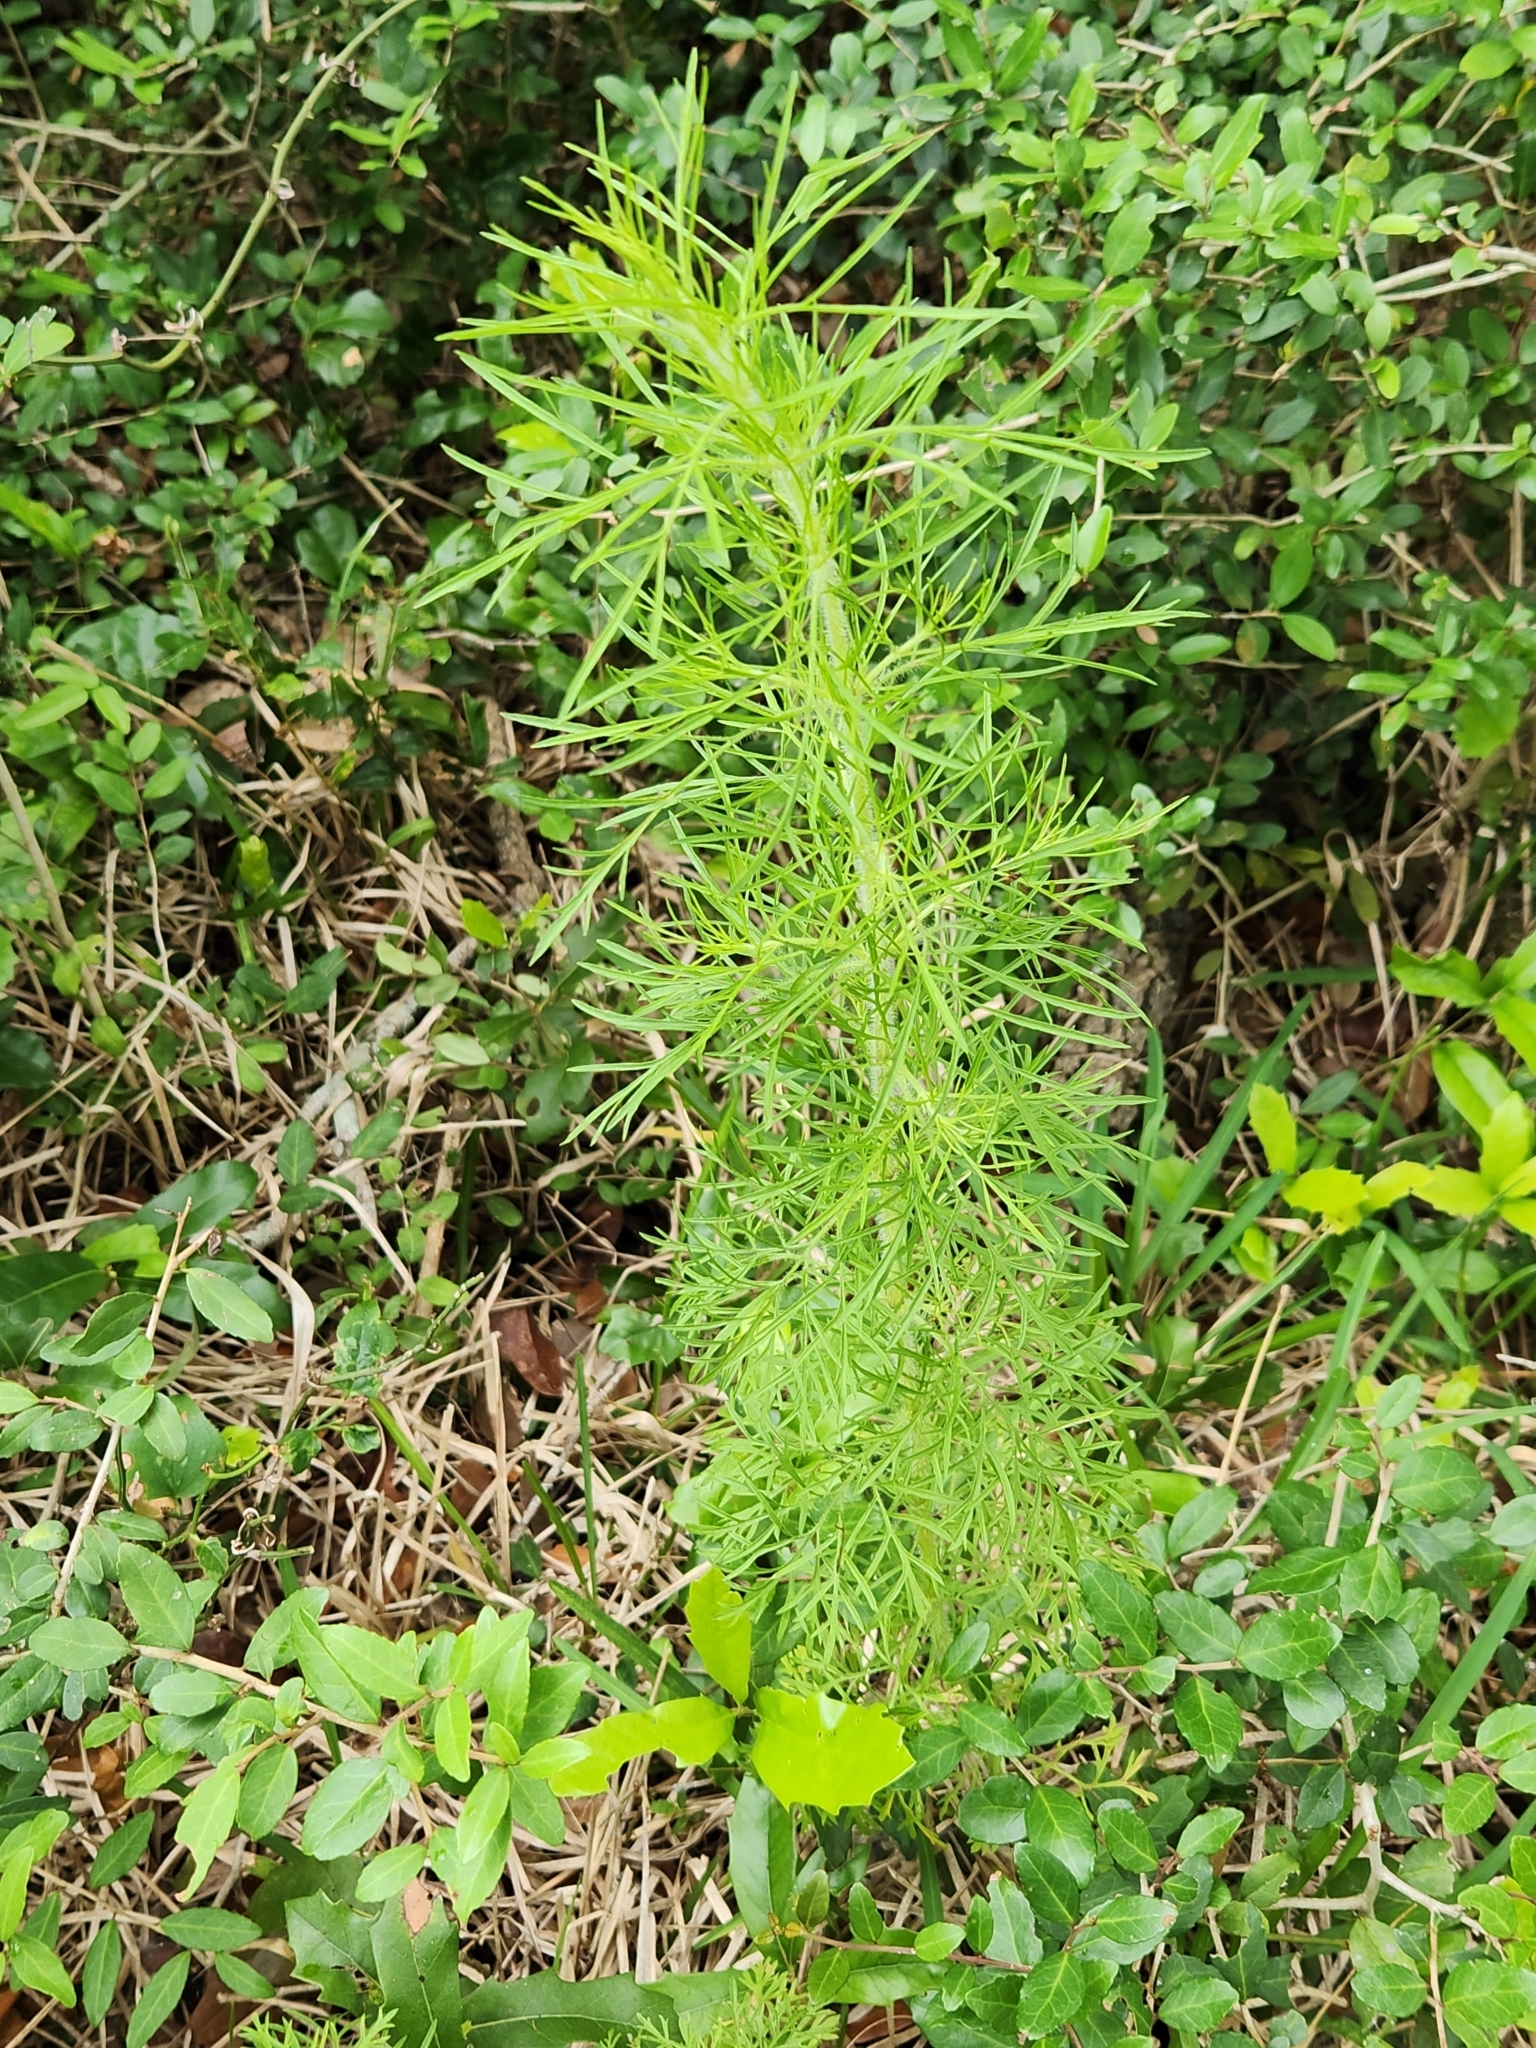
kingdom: Plantae
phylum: Tracheophyta
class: Magnoliopsida
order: Asterales
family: Asteraceae
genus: Eupatorium
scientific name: Eupatorium capillifolium
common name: Dog-fennel
